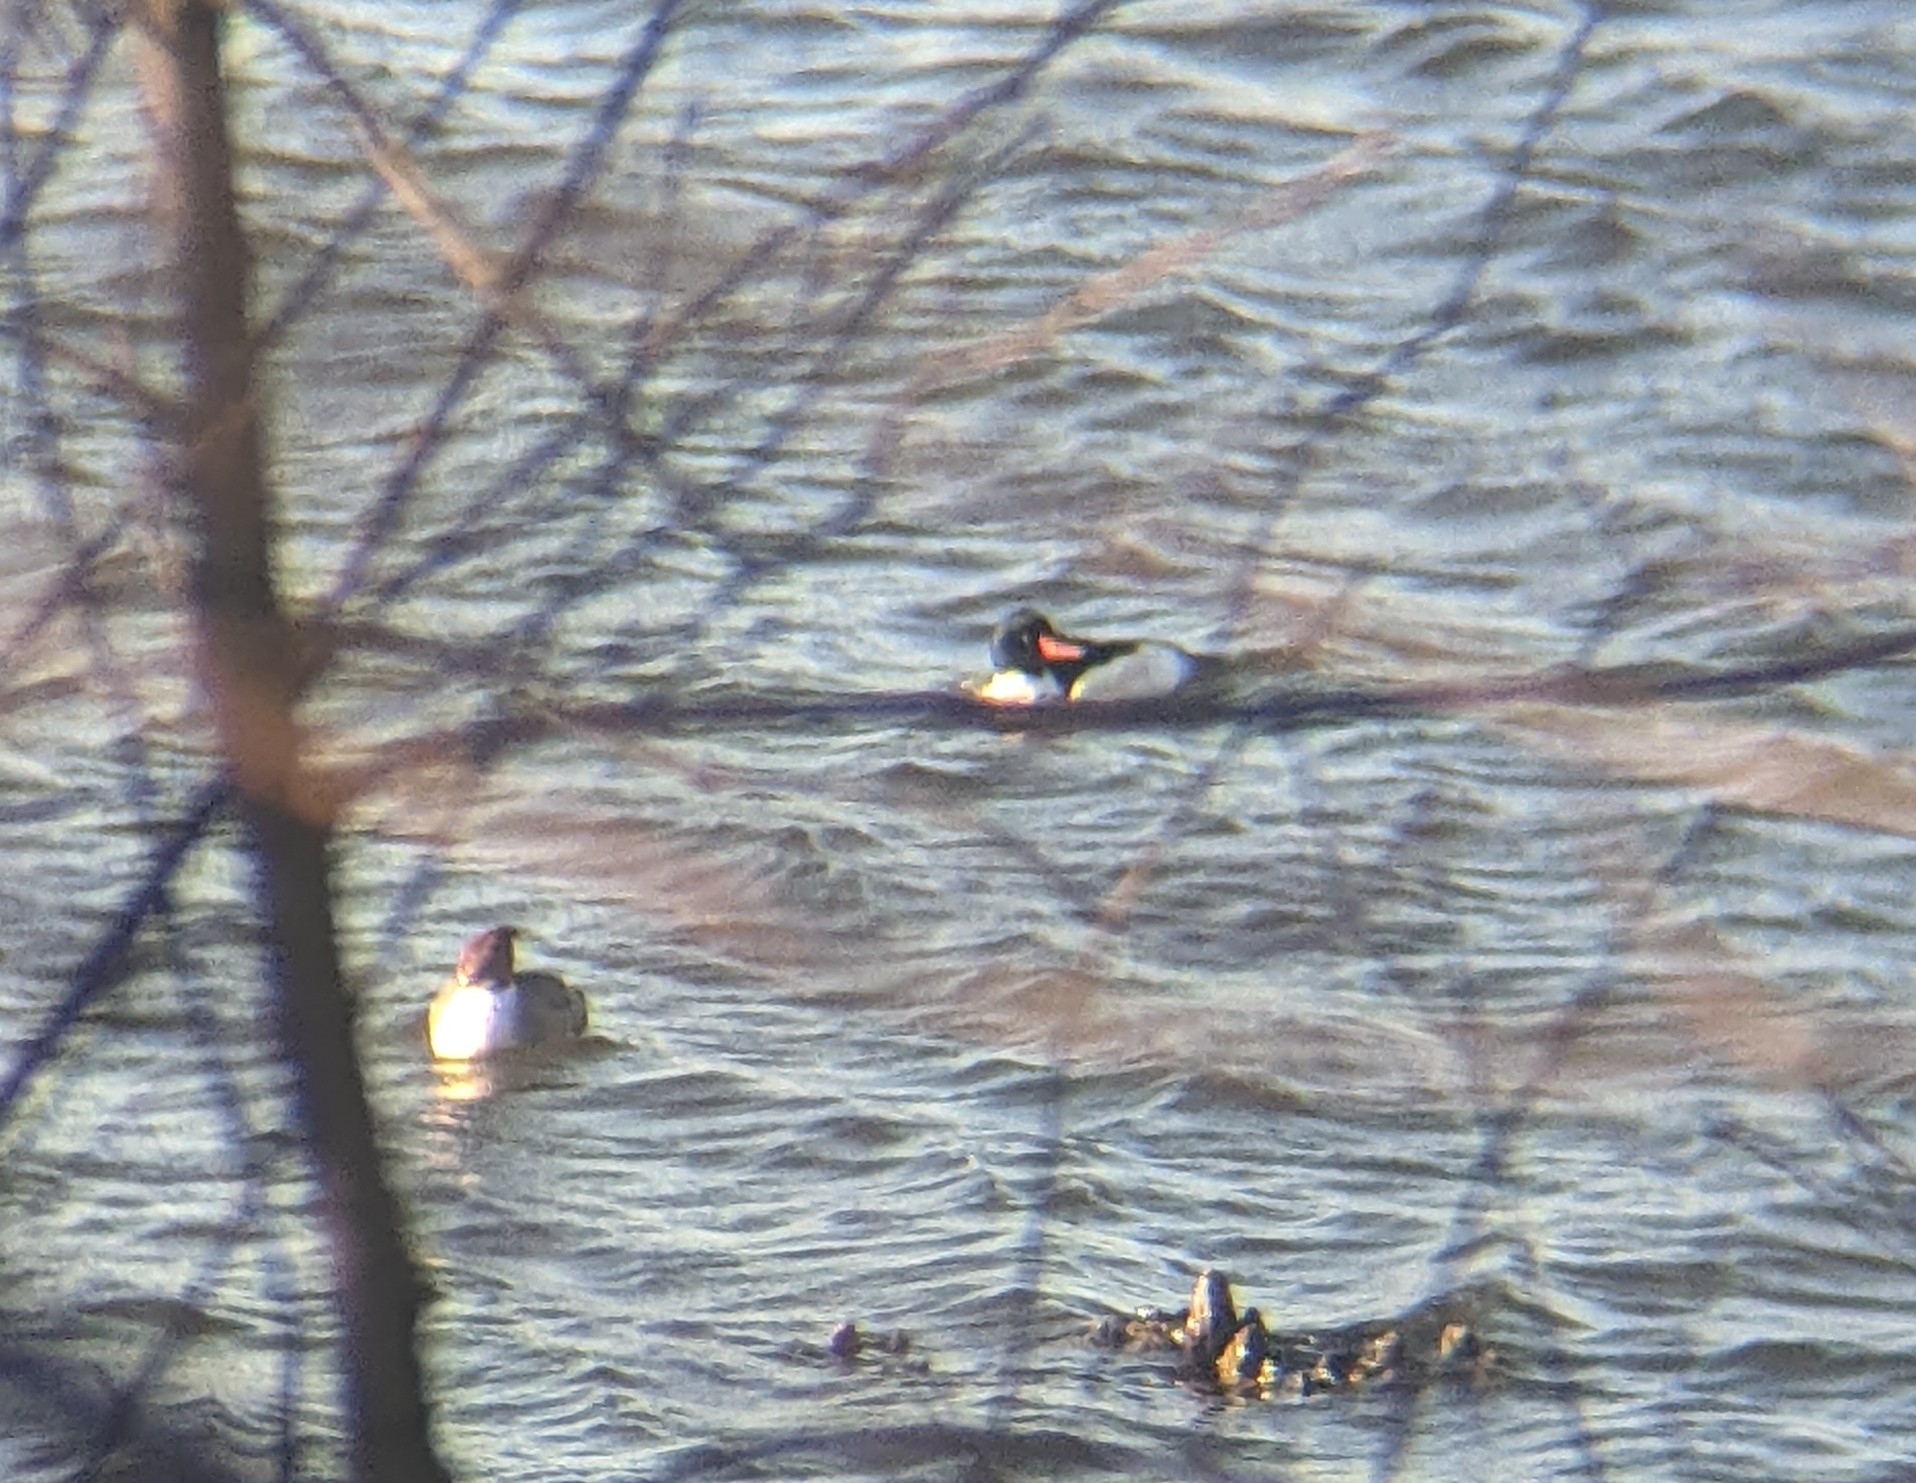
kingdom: Animalia
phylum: Chordata
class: Aves
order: Anseriformes
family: Anatidae
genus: Mergus
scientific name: Mergus merganser
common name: Common merganser
